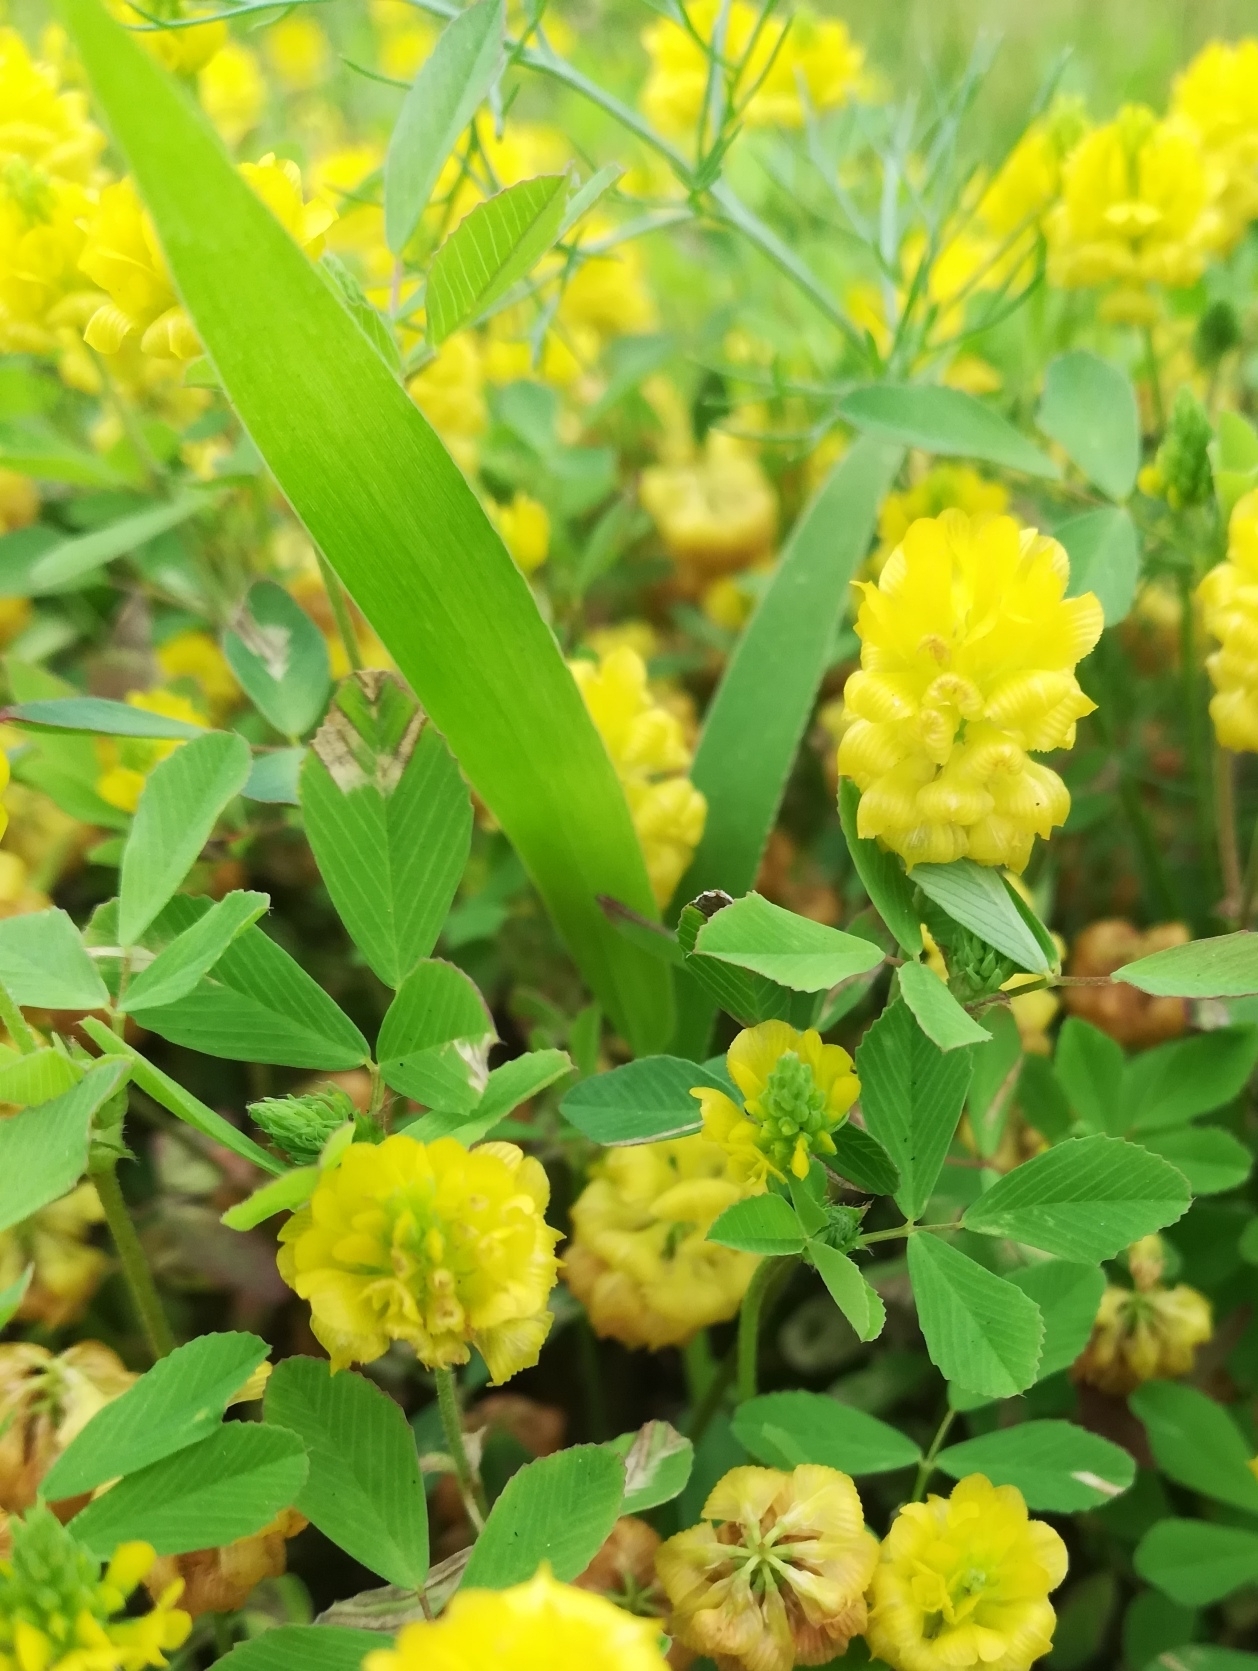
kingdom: Plantae
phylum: Tracheophyta
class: Magnoliopsida
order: Fabales
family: Fabaceae
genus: Trifolium
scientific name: Trifolium campestre
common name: Field clover
